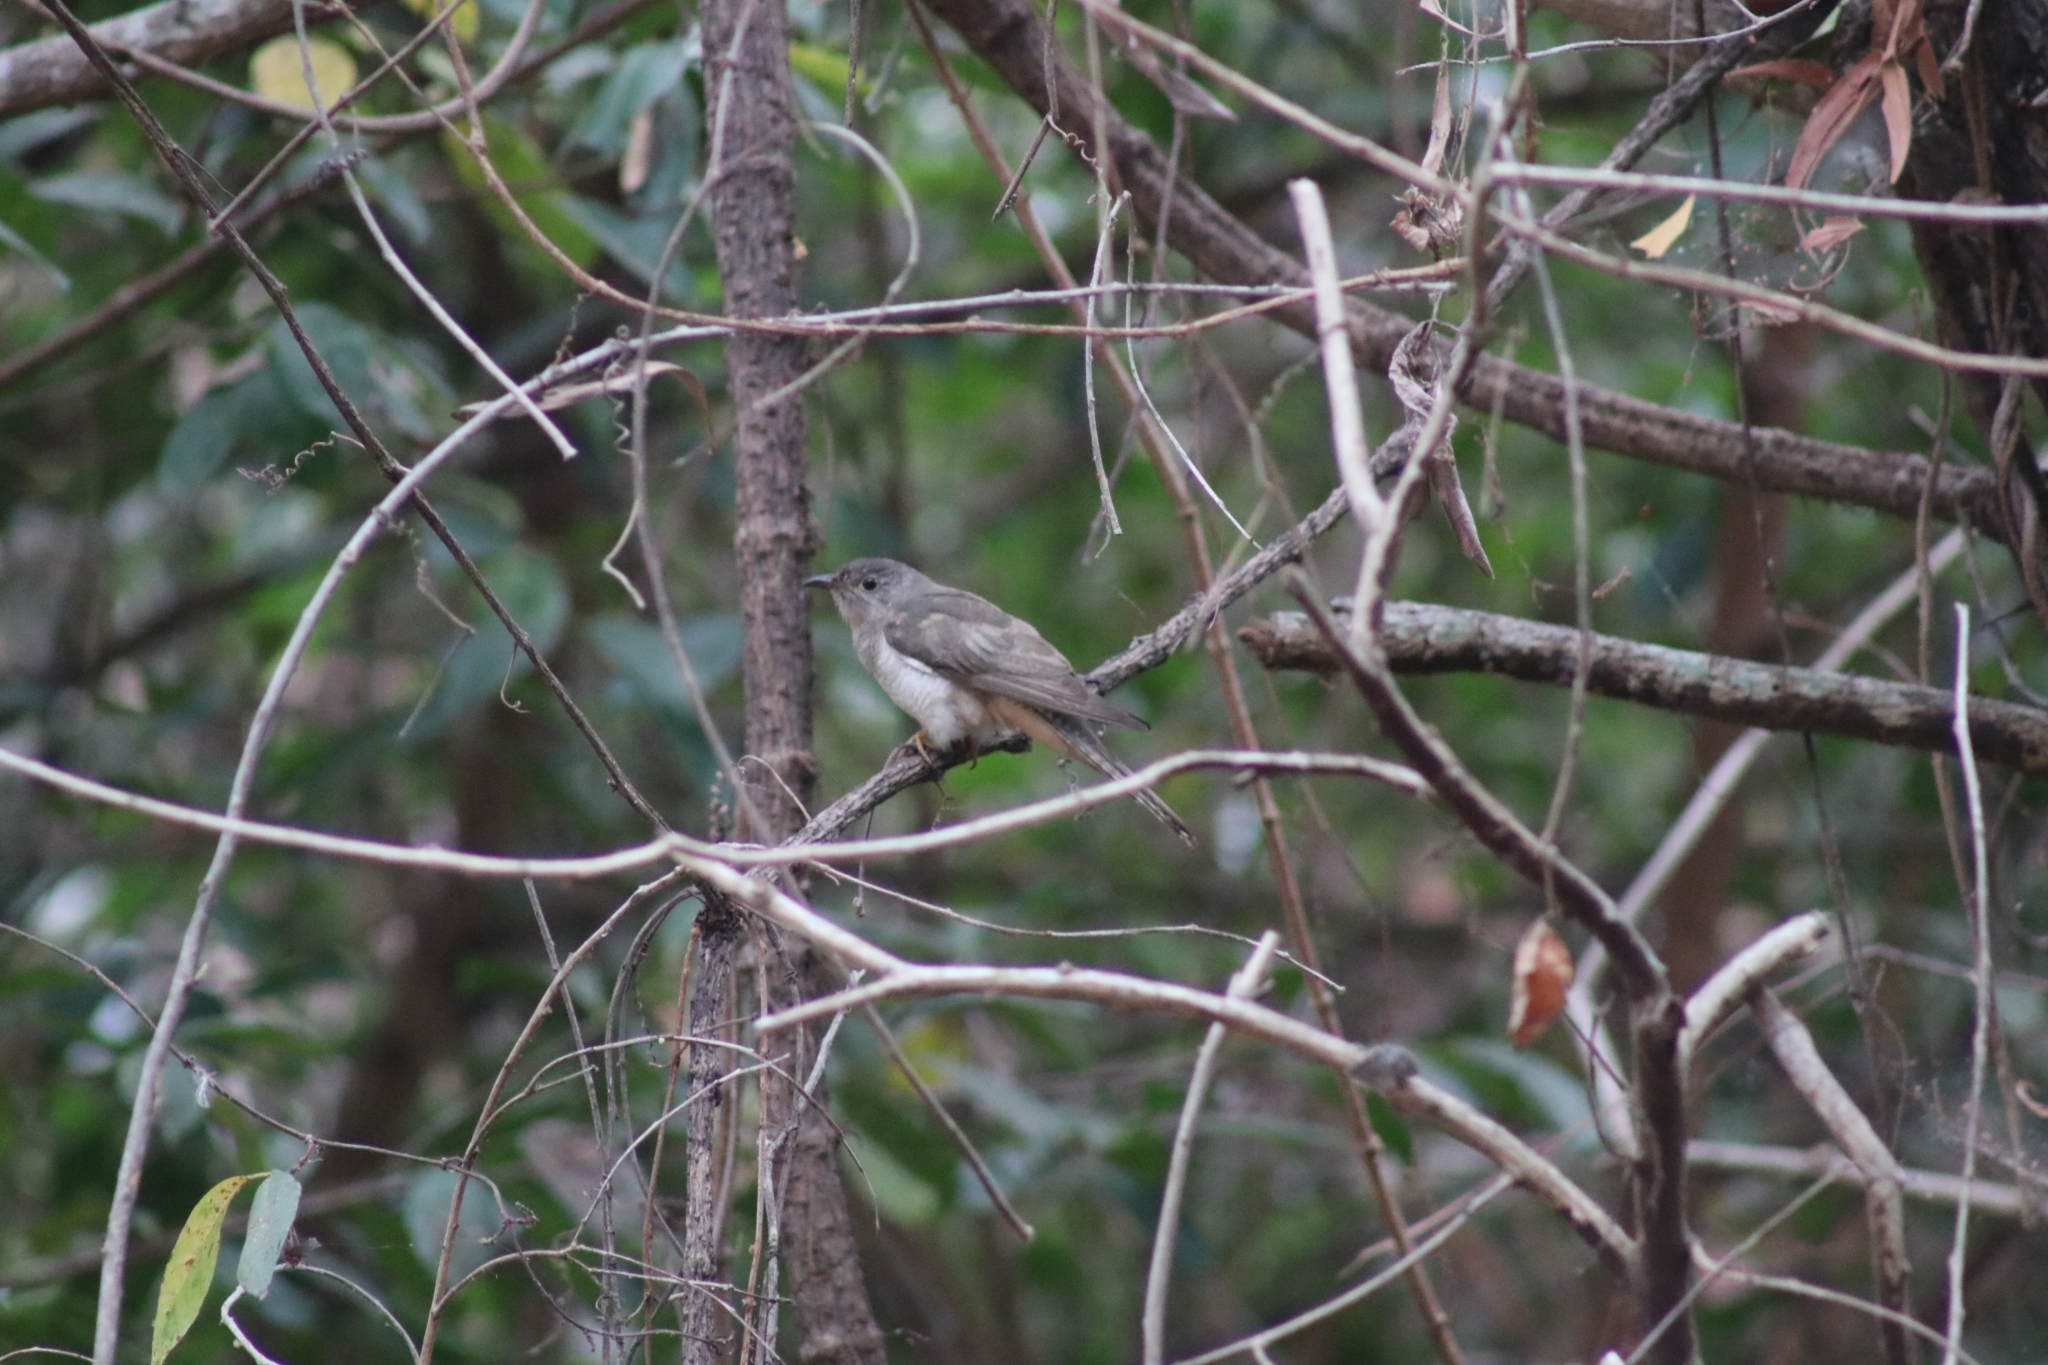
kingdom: Animalia
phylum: Chordata
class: Aves
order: Cuculiformes
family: Cuculidae
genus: Cacomantis
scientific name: Cacomantis variolosus
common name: Brush cuckoo
